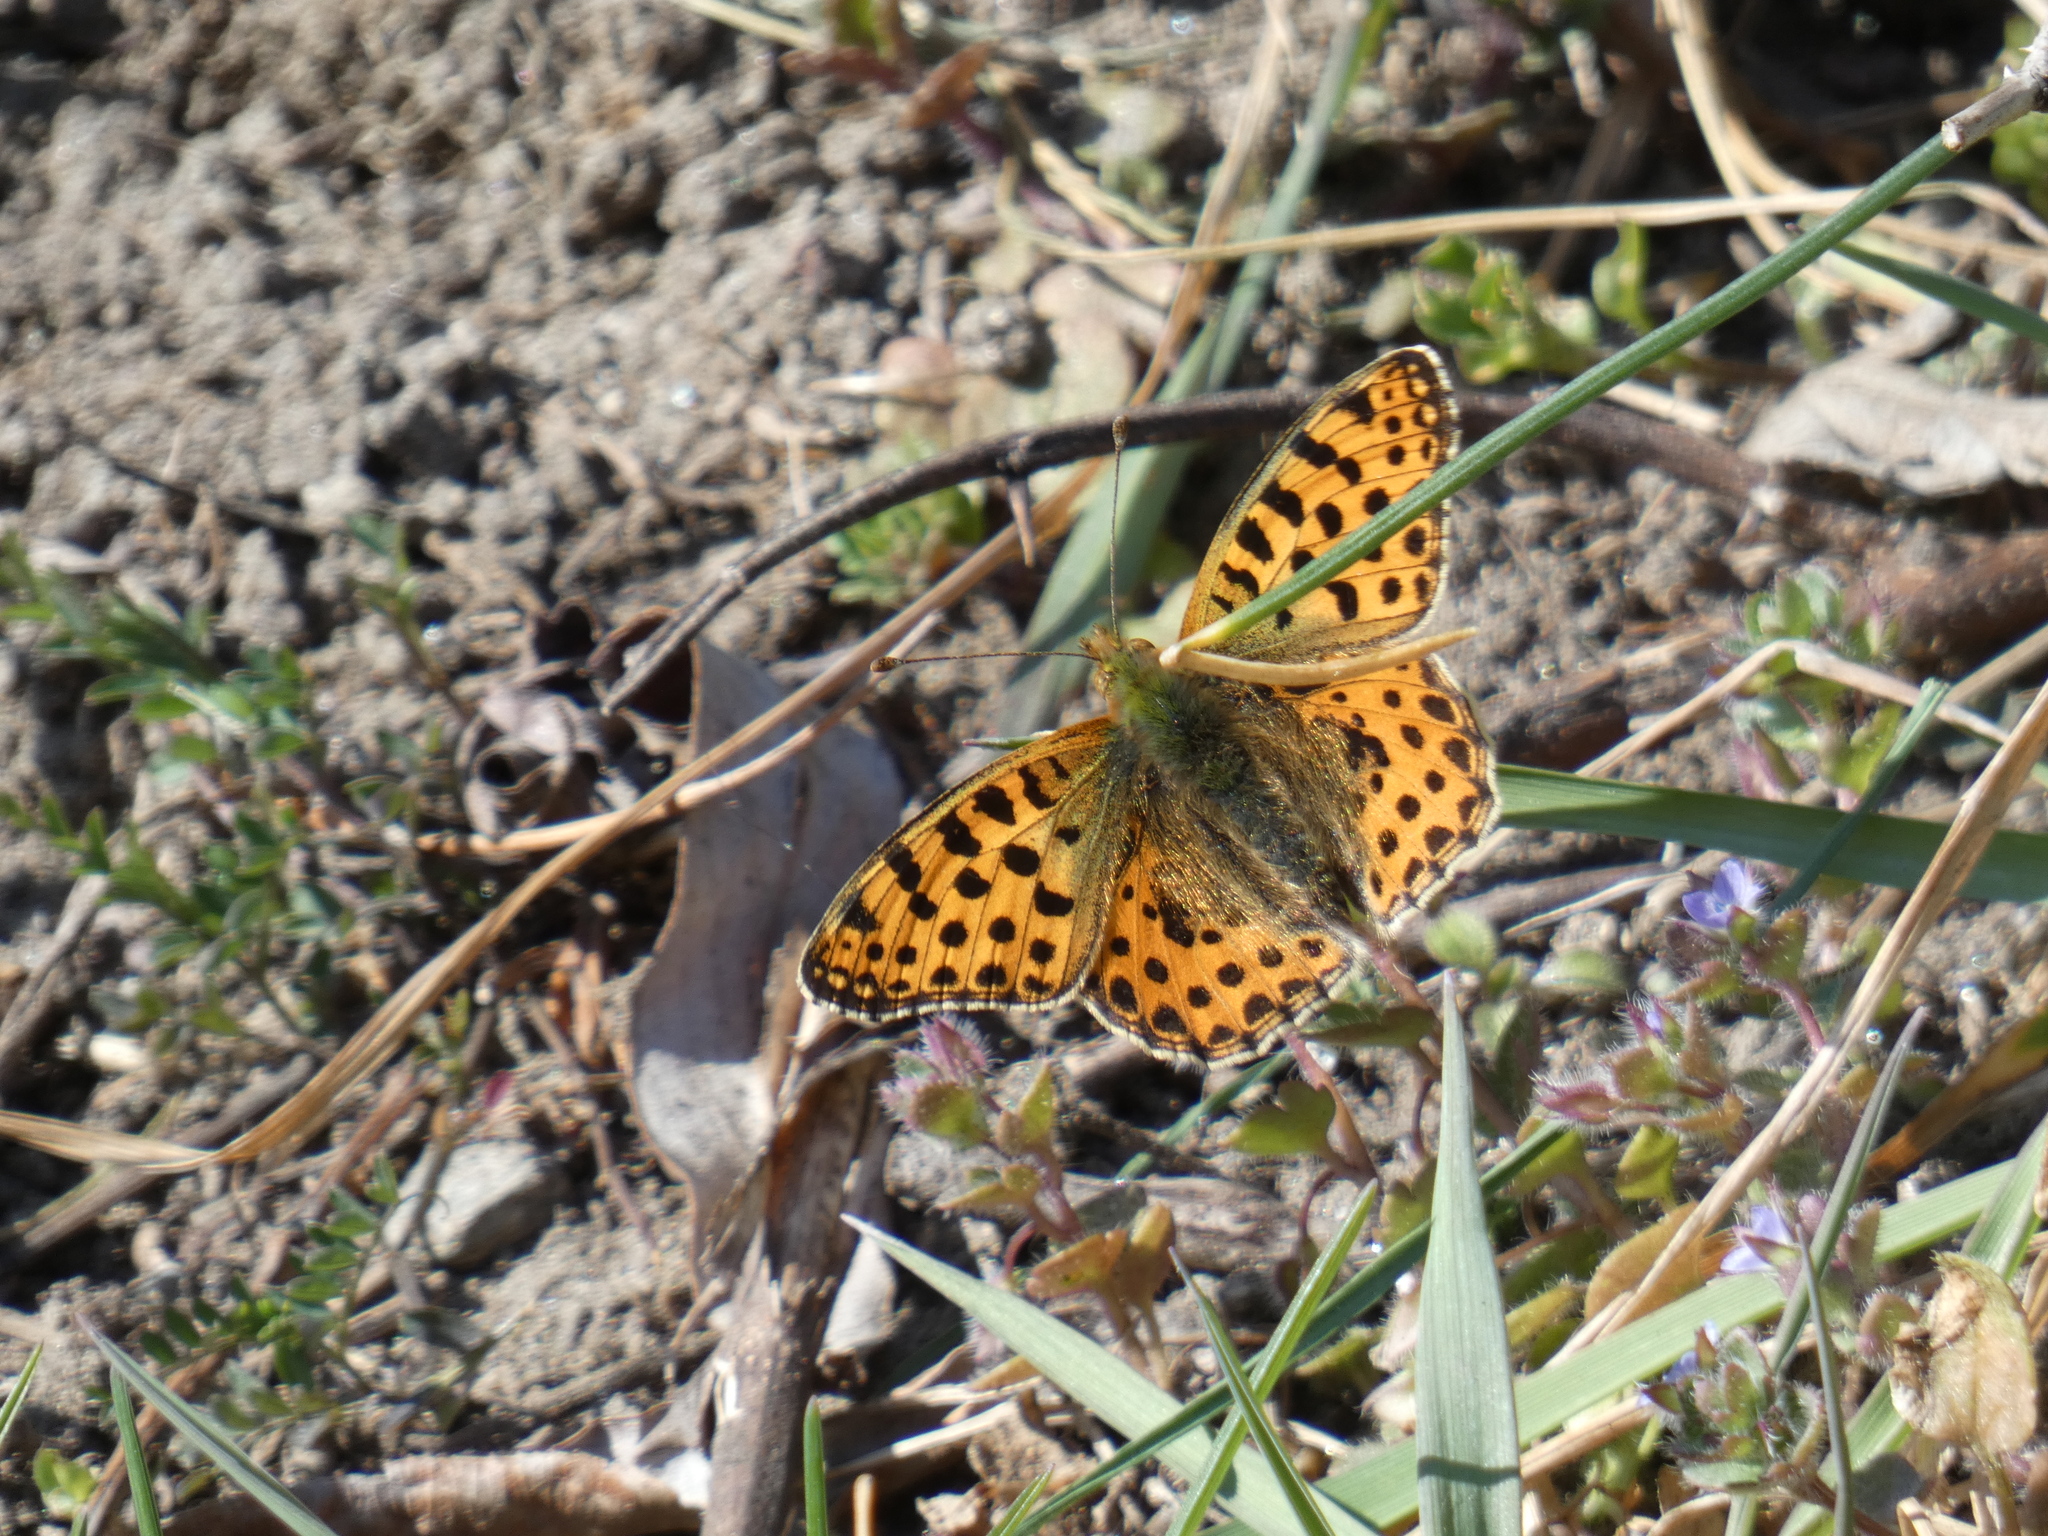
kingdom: Animalia
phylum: Arthropoda
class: Insecta
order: Lepidoptera
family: Nymphalidae
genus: Issoria
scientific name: Issoria lathonia
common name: Queen of spain fritillary
